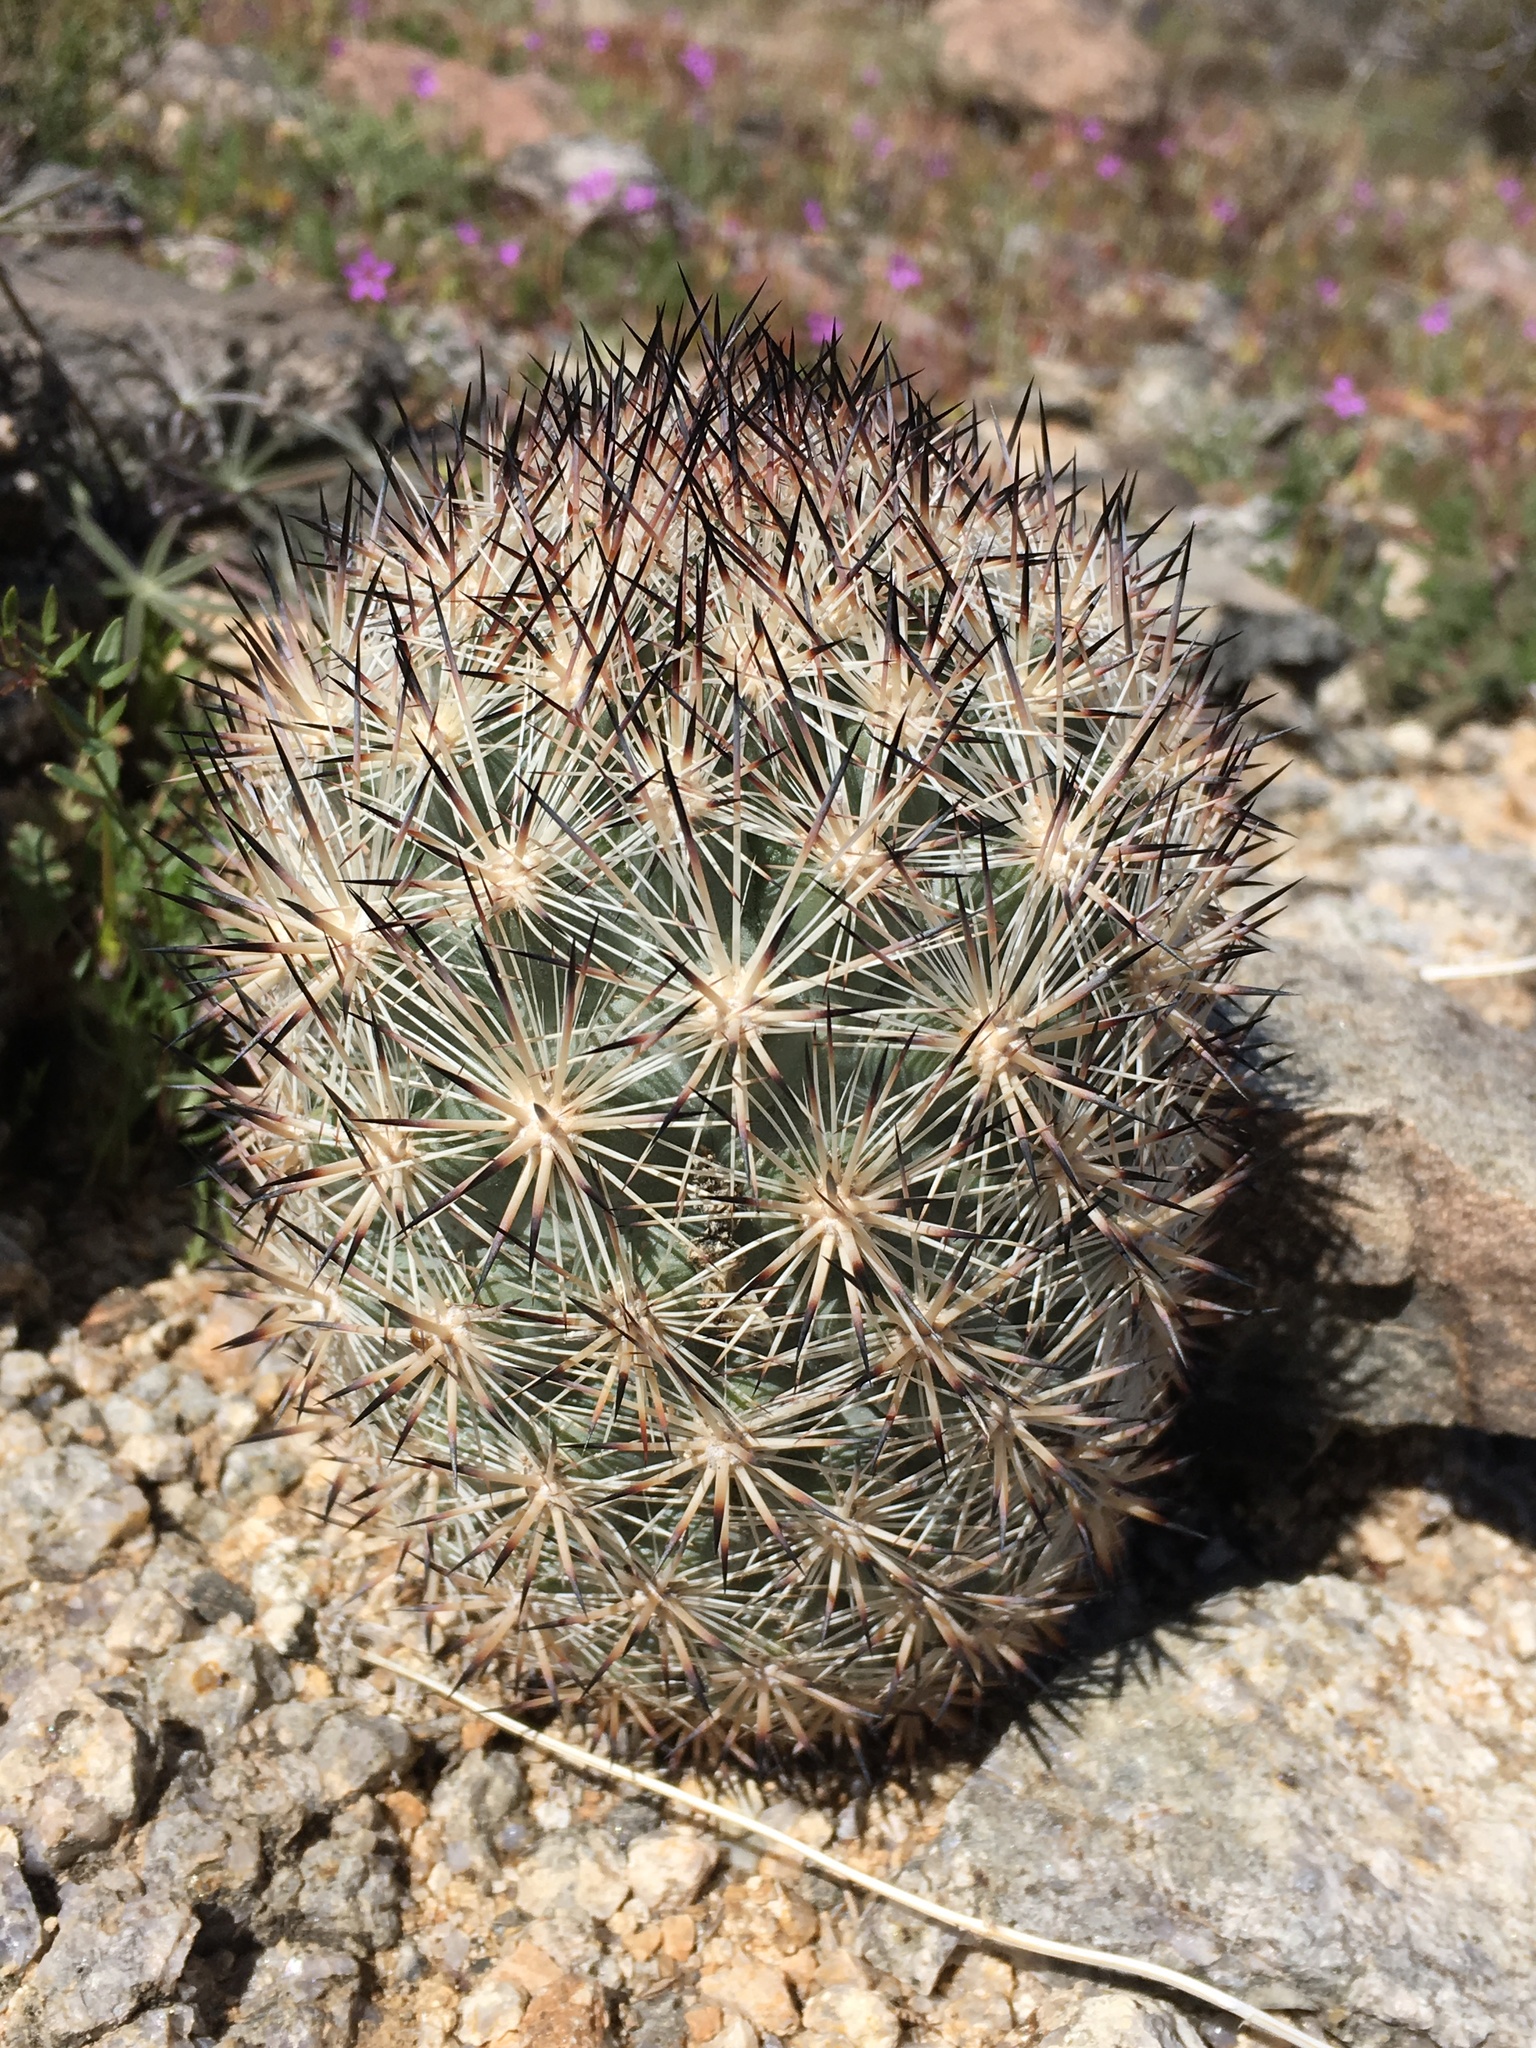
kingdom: Plantae
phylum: Tracheophyta
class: Magnoliopsida
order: Caryophyllales
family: Cactaceae
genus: Pelecyphora
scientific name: Pelecyphora alversonii
